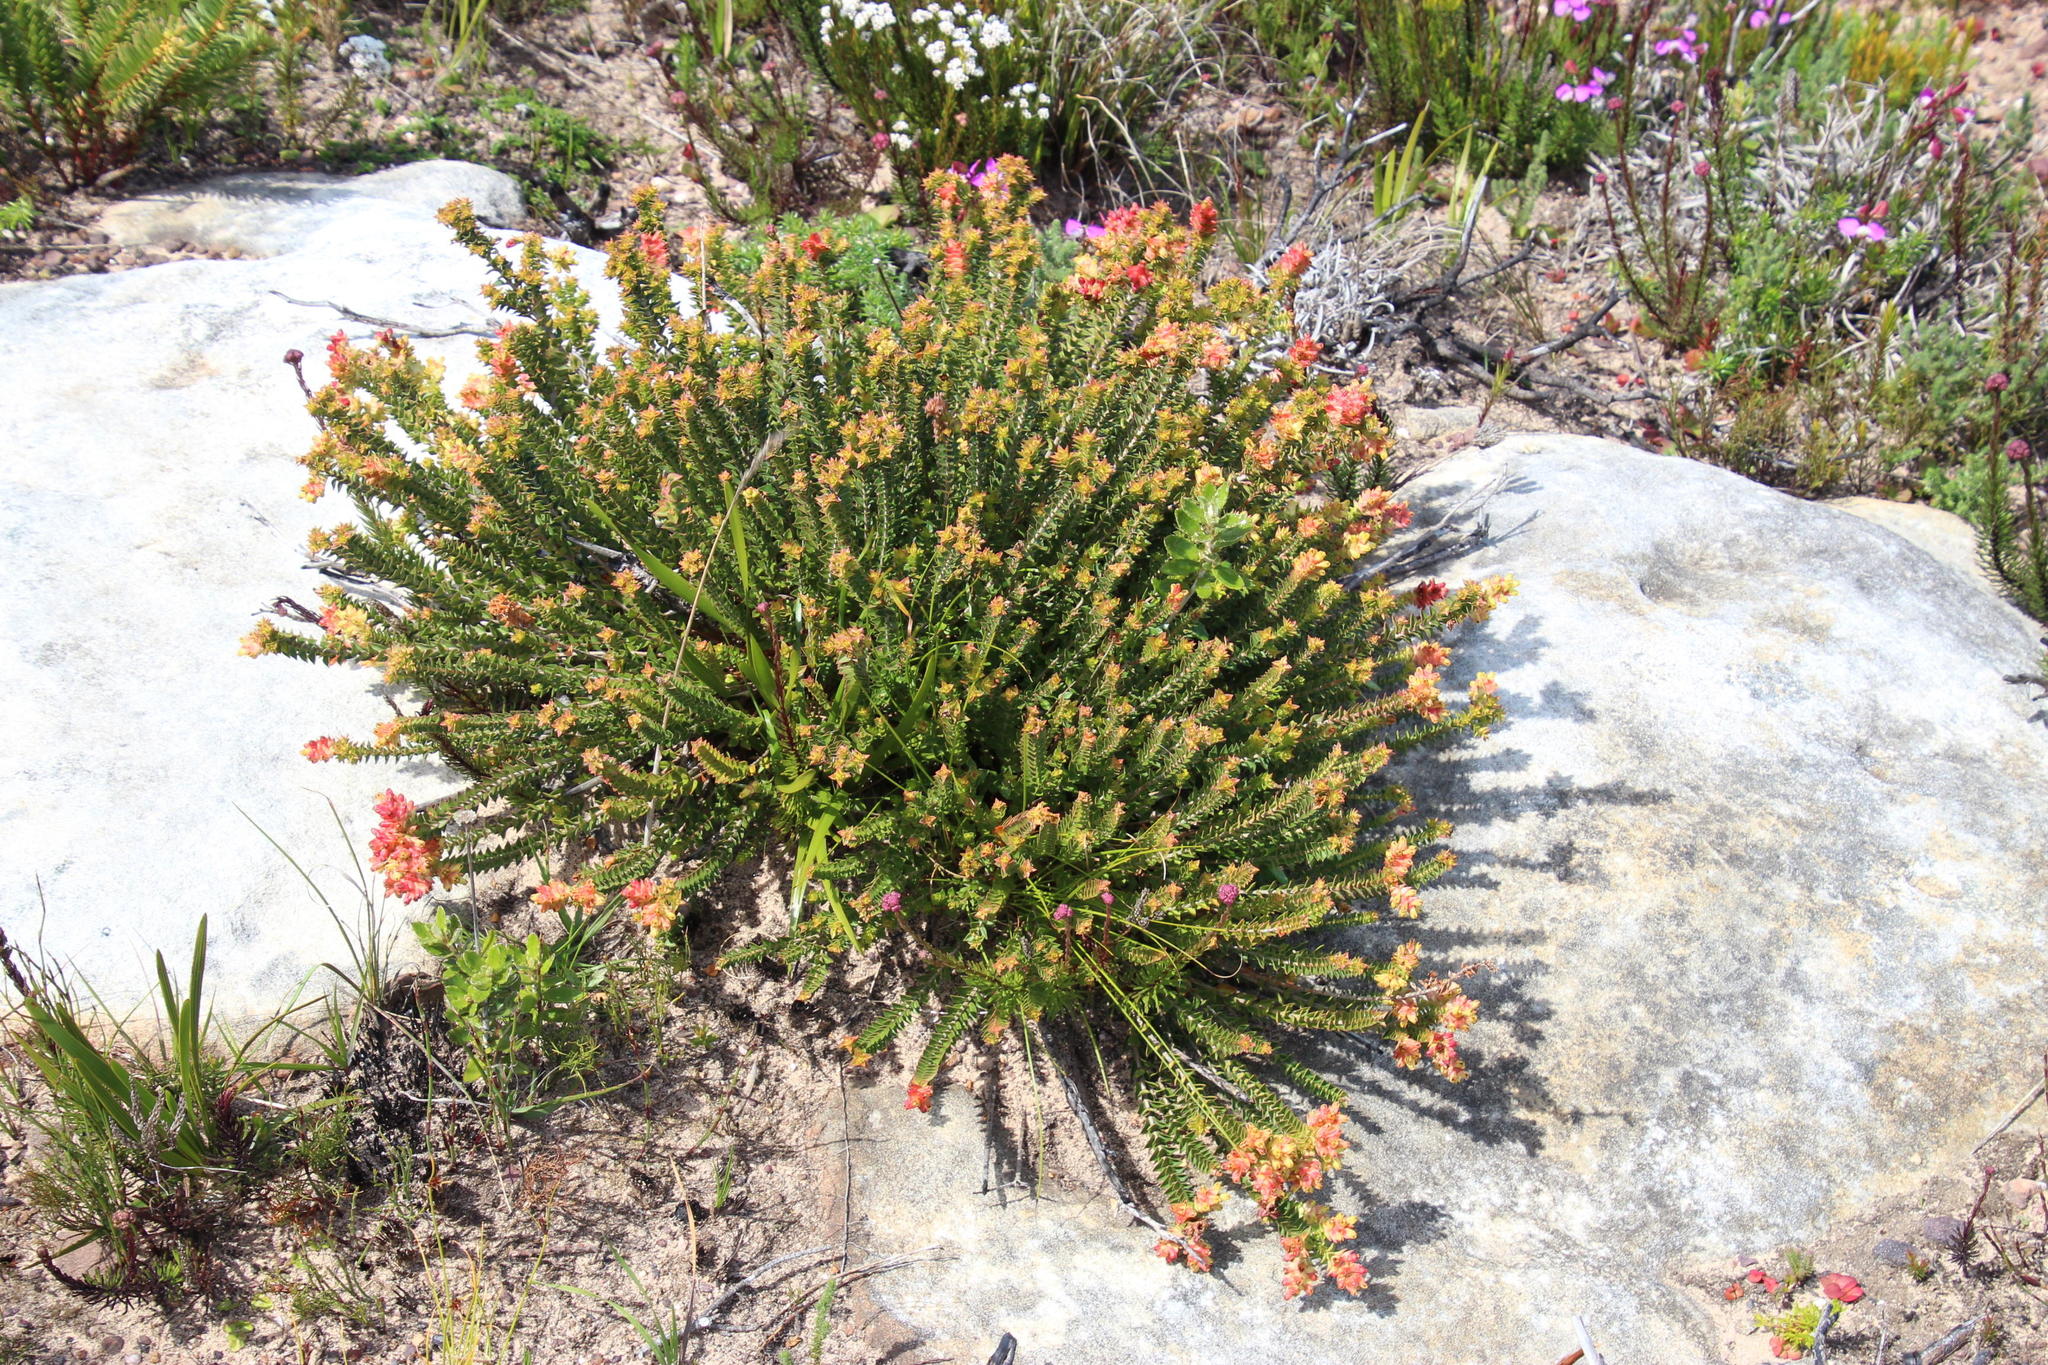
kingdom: Plantae
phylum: Tracheophyta
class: Magnoliopsida
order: Myrtales
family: Penaeaceae
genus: Penaea
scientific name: Penaea mucronata
